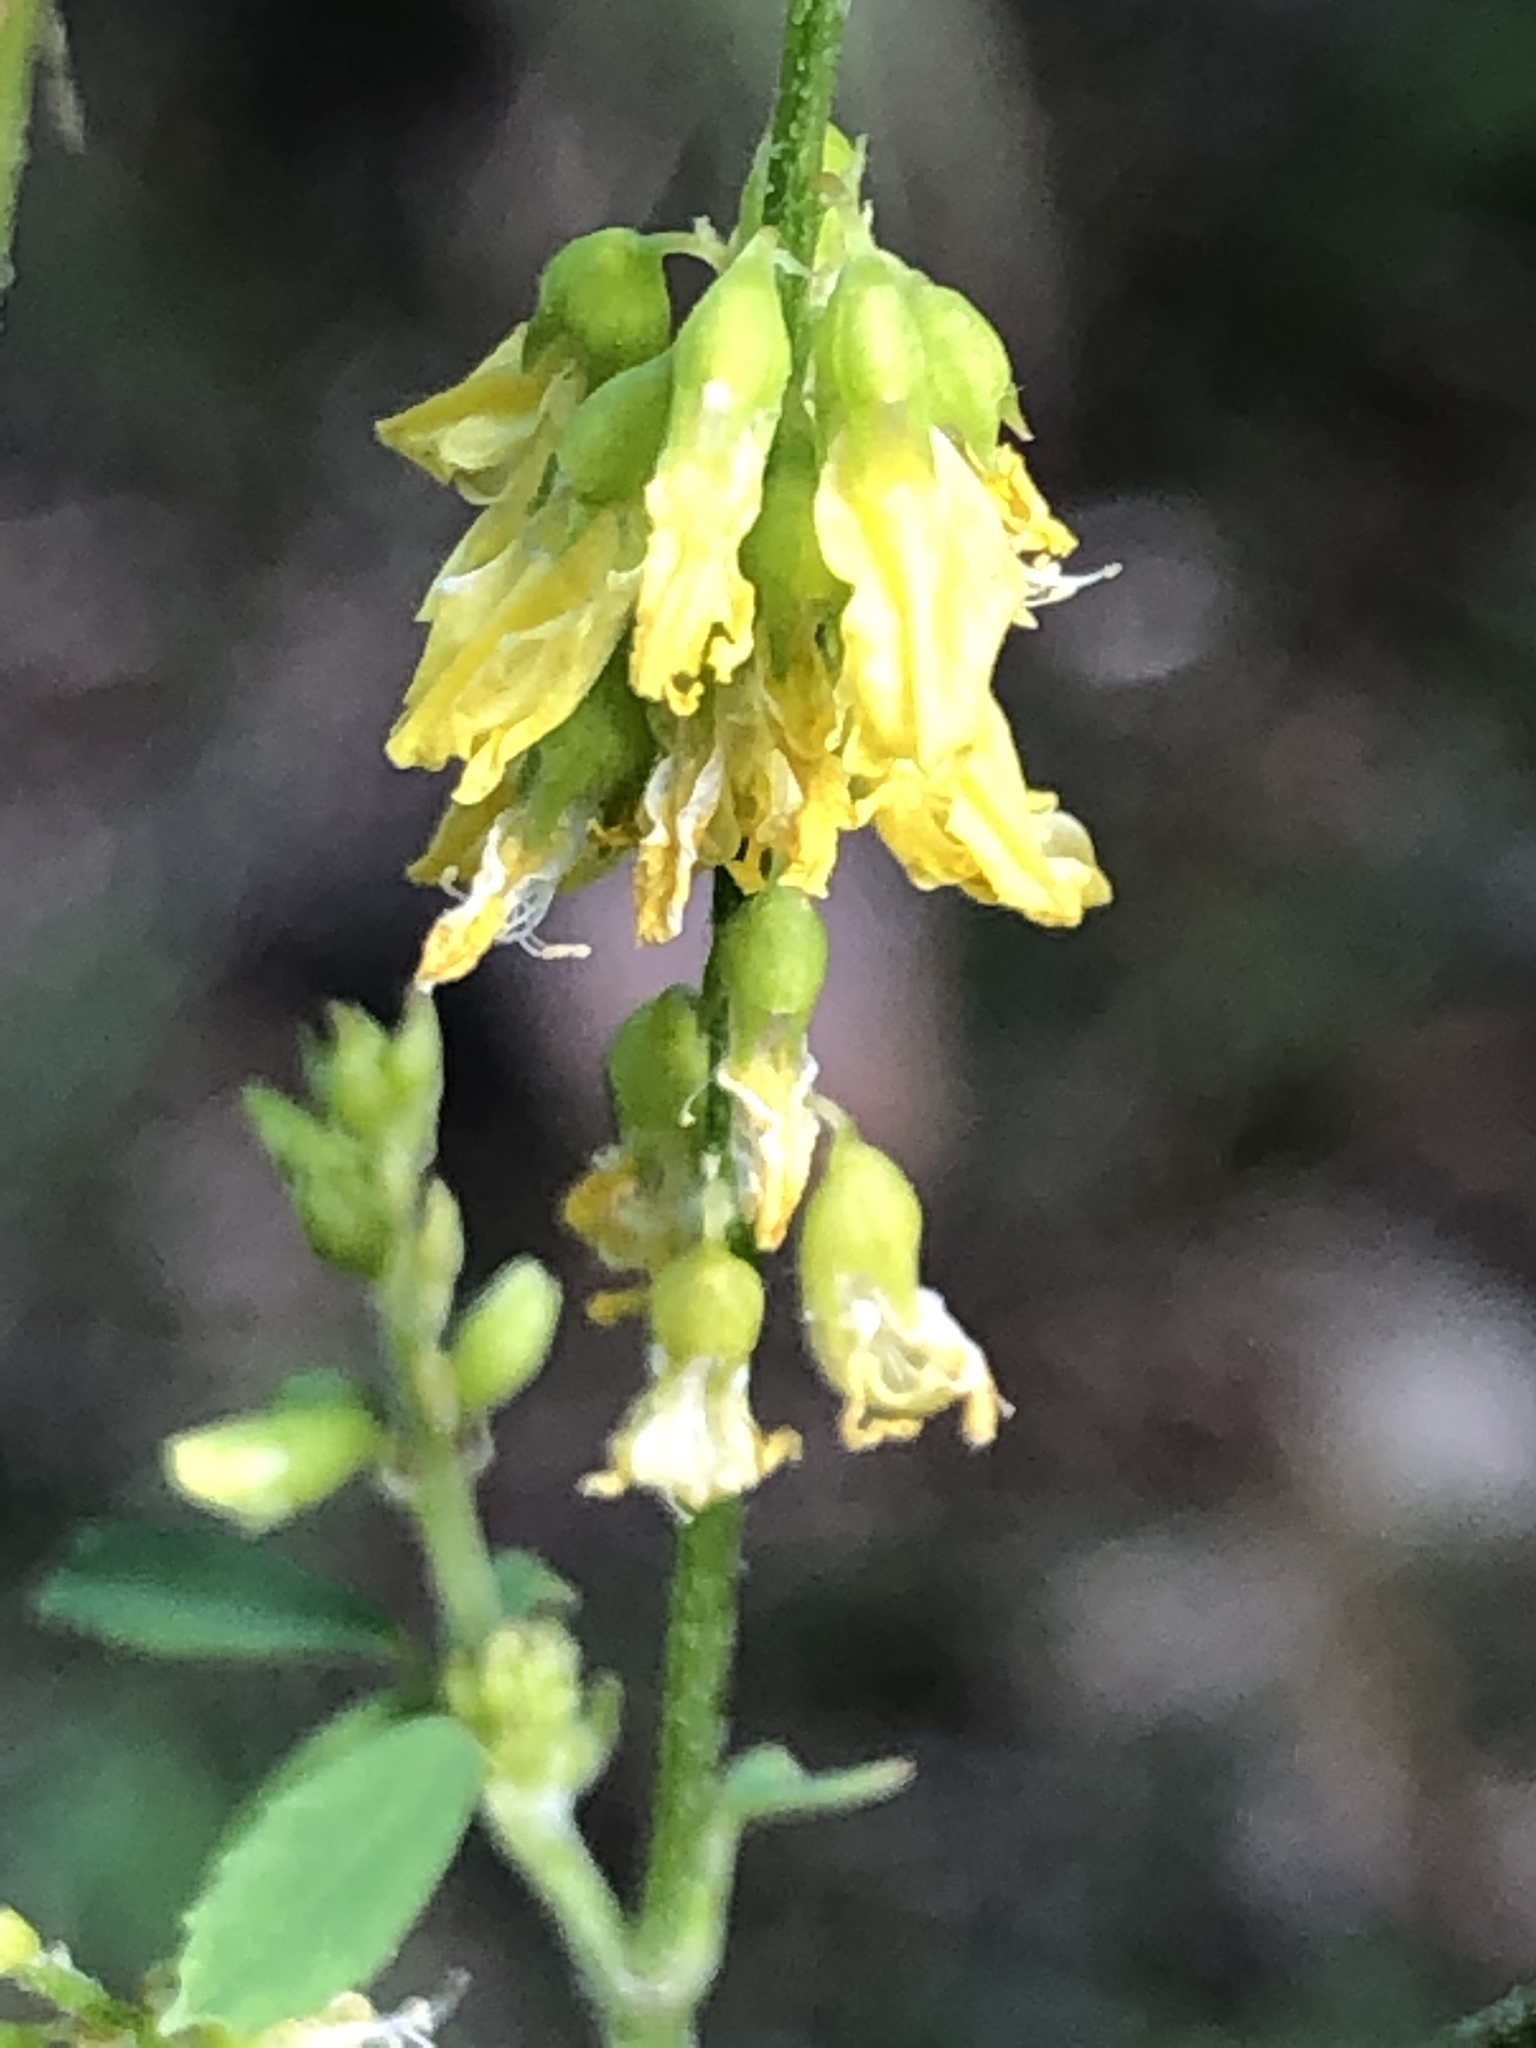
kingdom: Plantae
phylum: Tracheophyta
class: Magnoliopsida
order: Fabales
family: Fabaceae
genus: Melilotus
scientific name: Melilotus officinalis
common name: Sweetclover
